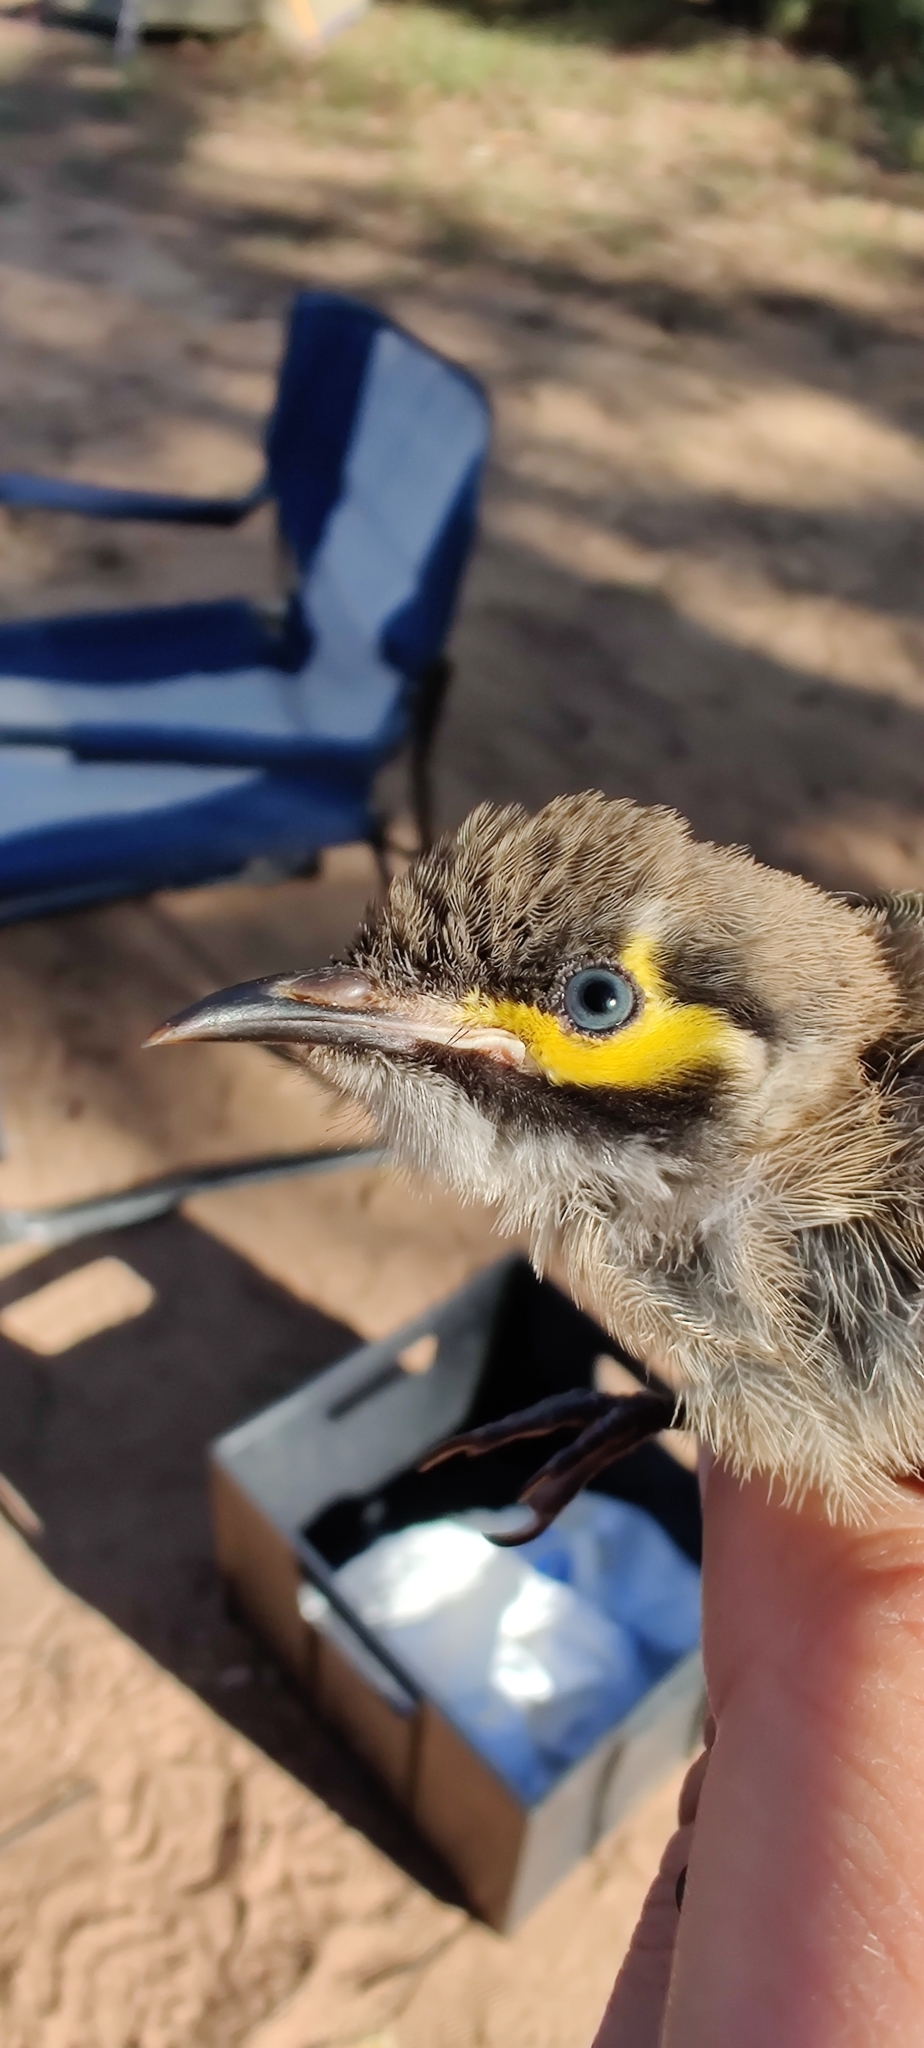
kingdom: Animalia
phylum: Chordata
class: Aves
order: Passeriformes
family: Meliphagidae
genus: Caligavis
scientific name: Caligavis chrysops
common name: Yellow-faced honeyeater
